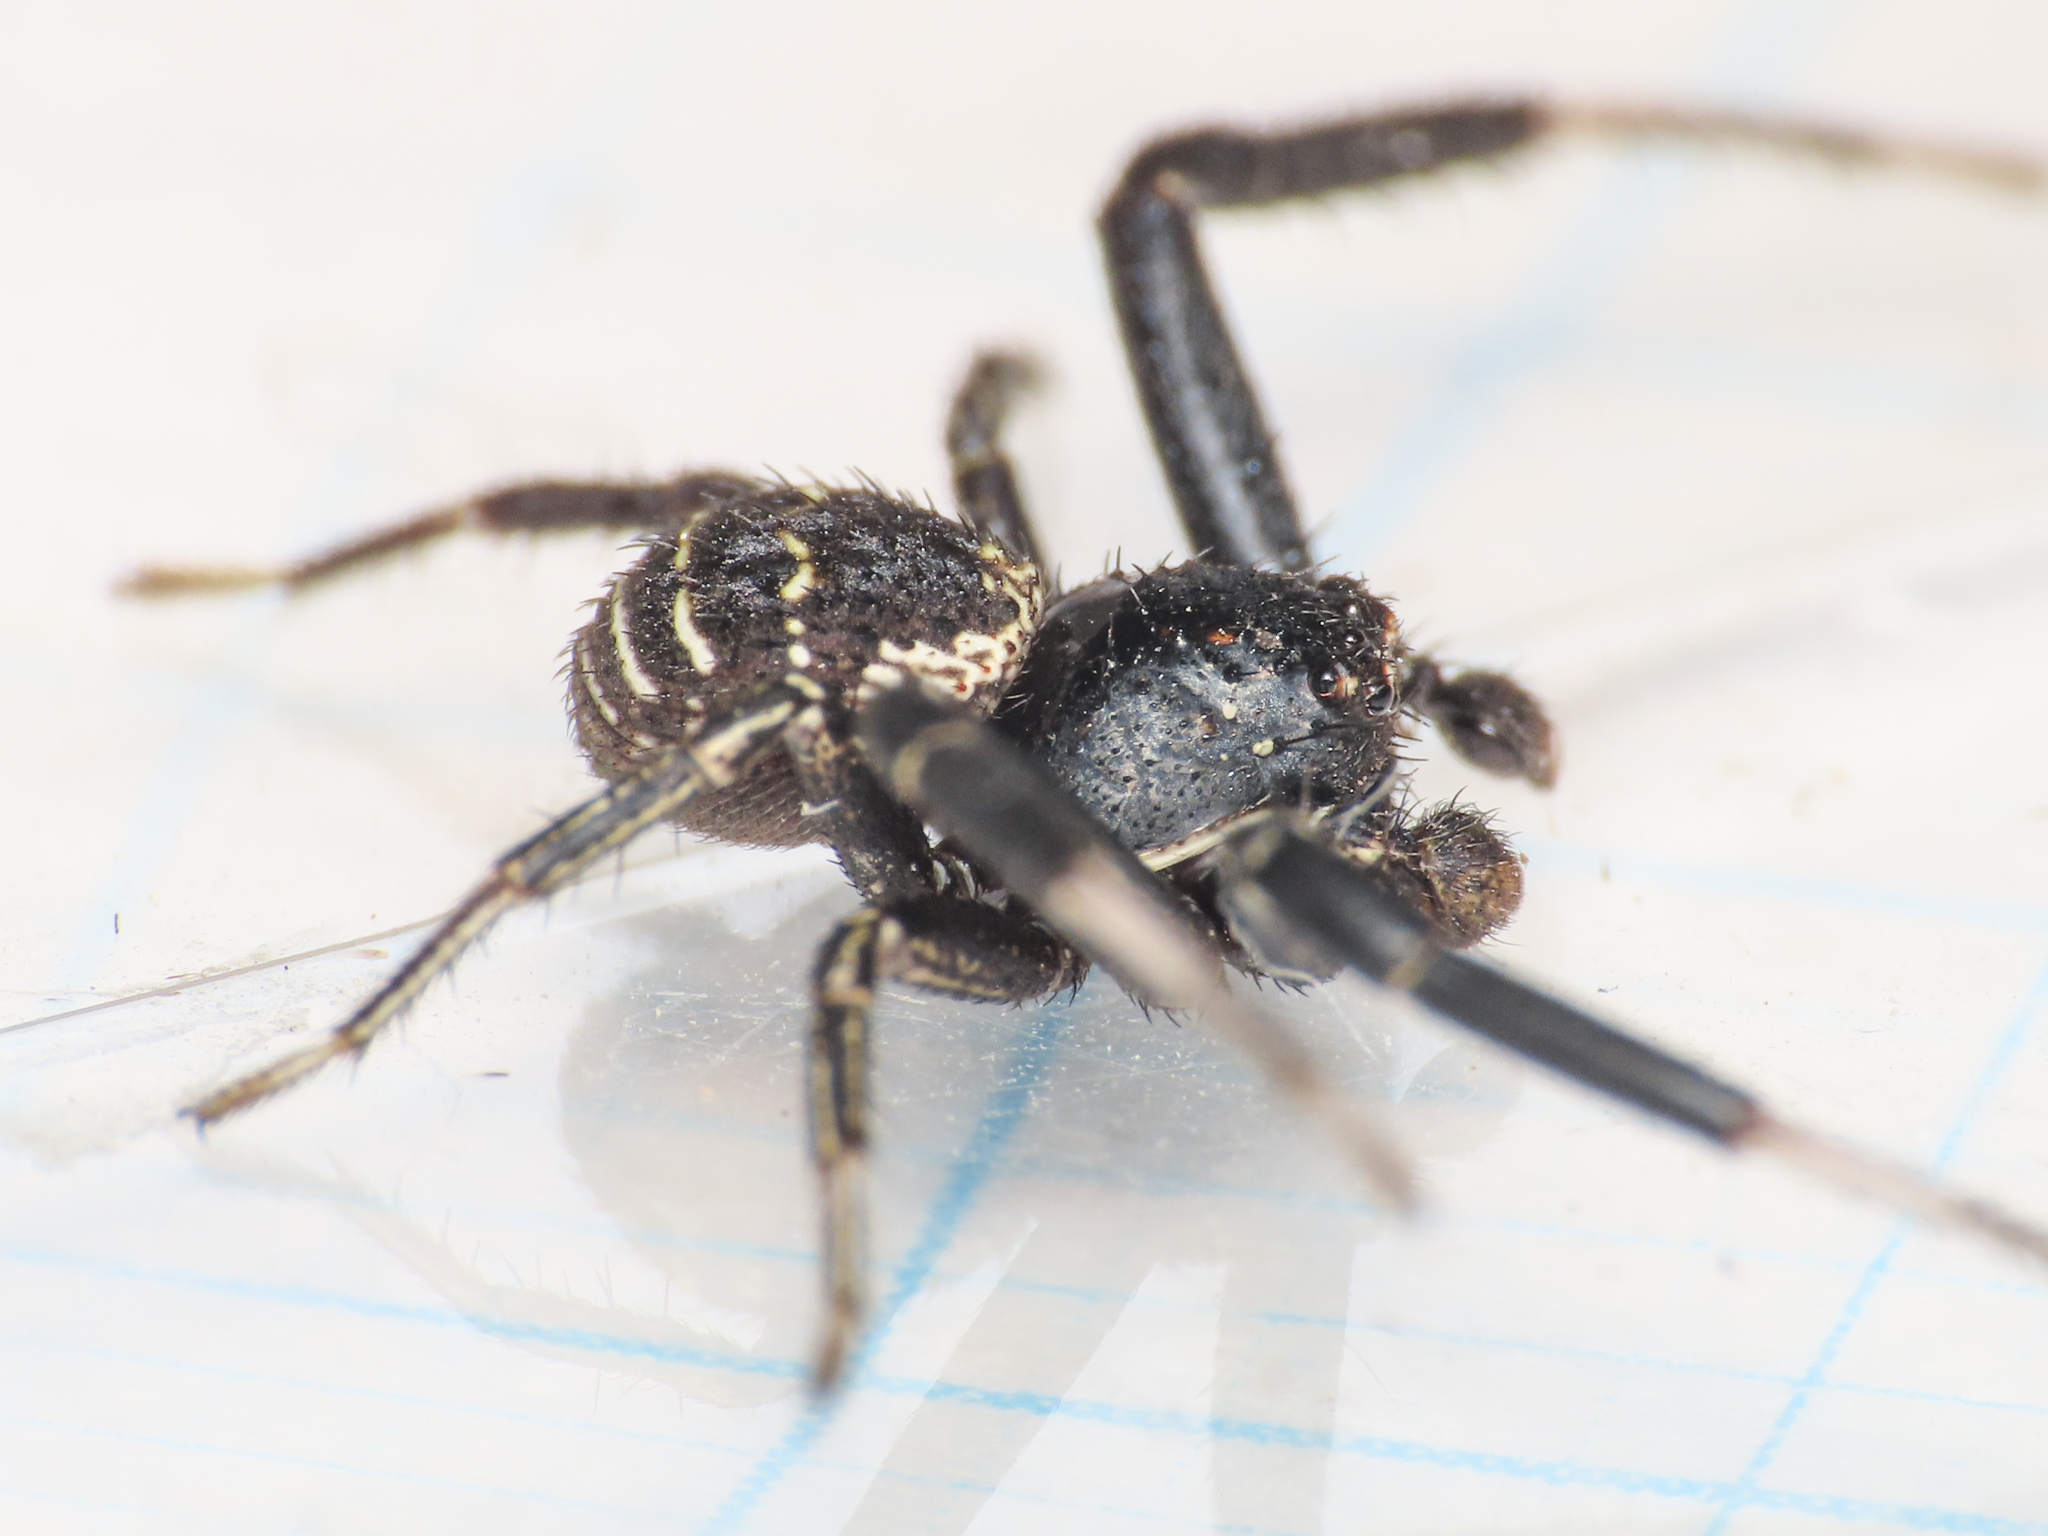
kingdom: Animalia
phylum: Arthropoda
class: Arachnida
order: Araneae
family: Thomisidae
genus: Bassaniodes
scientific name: Bassaniodes bufo
